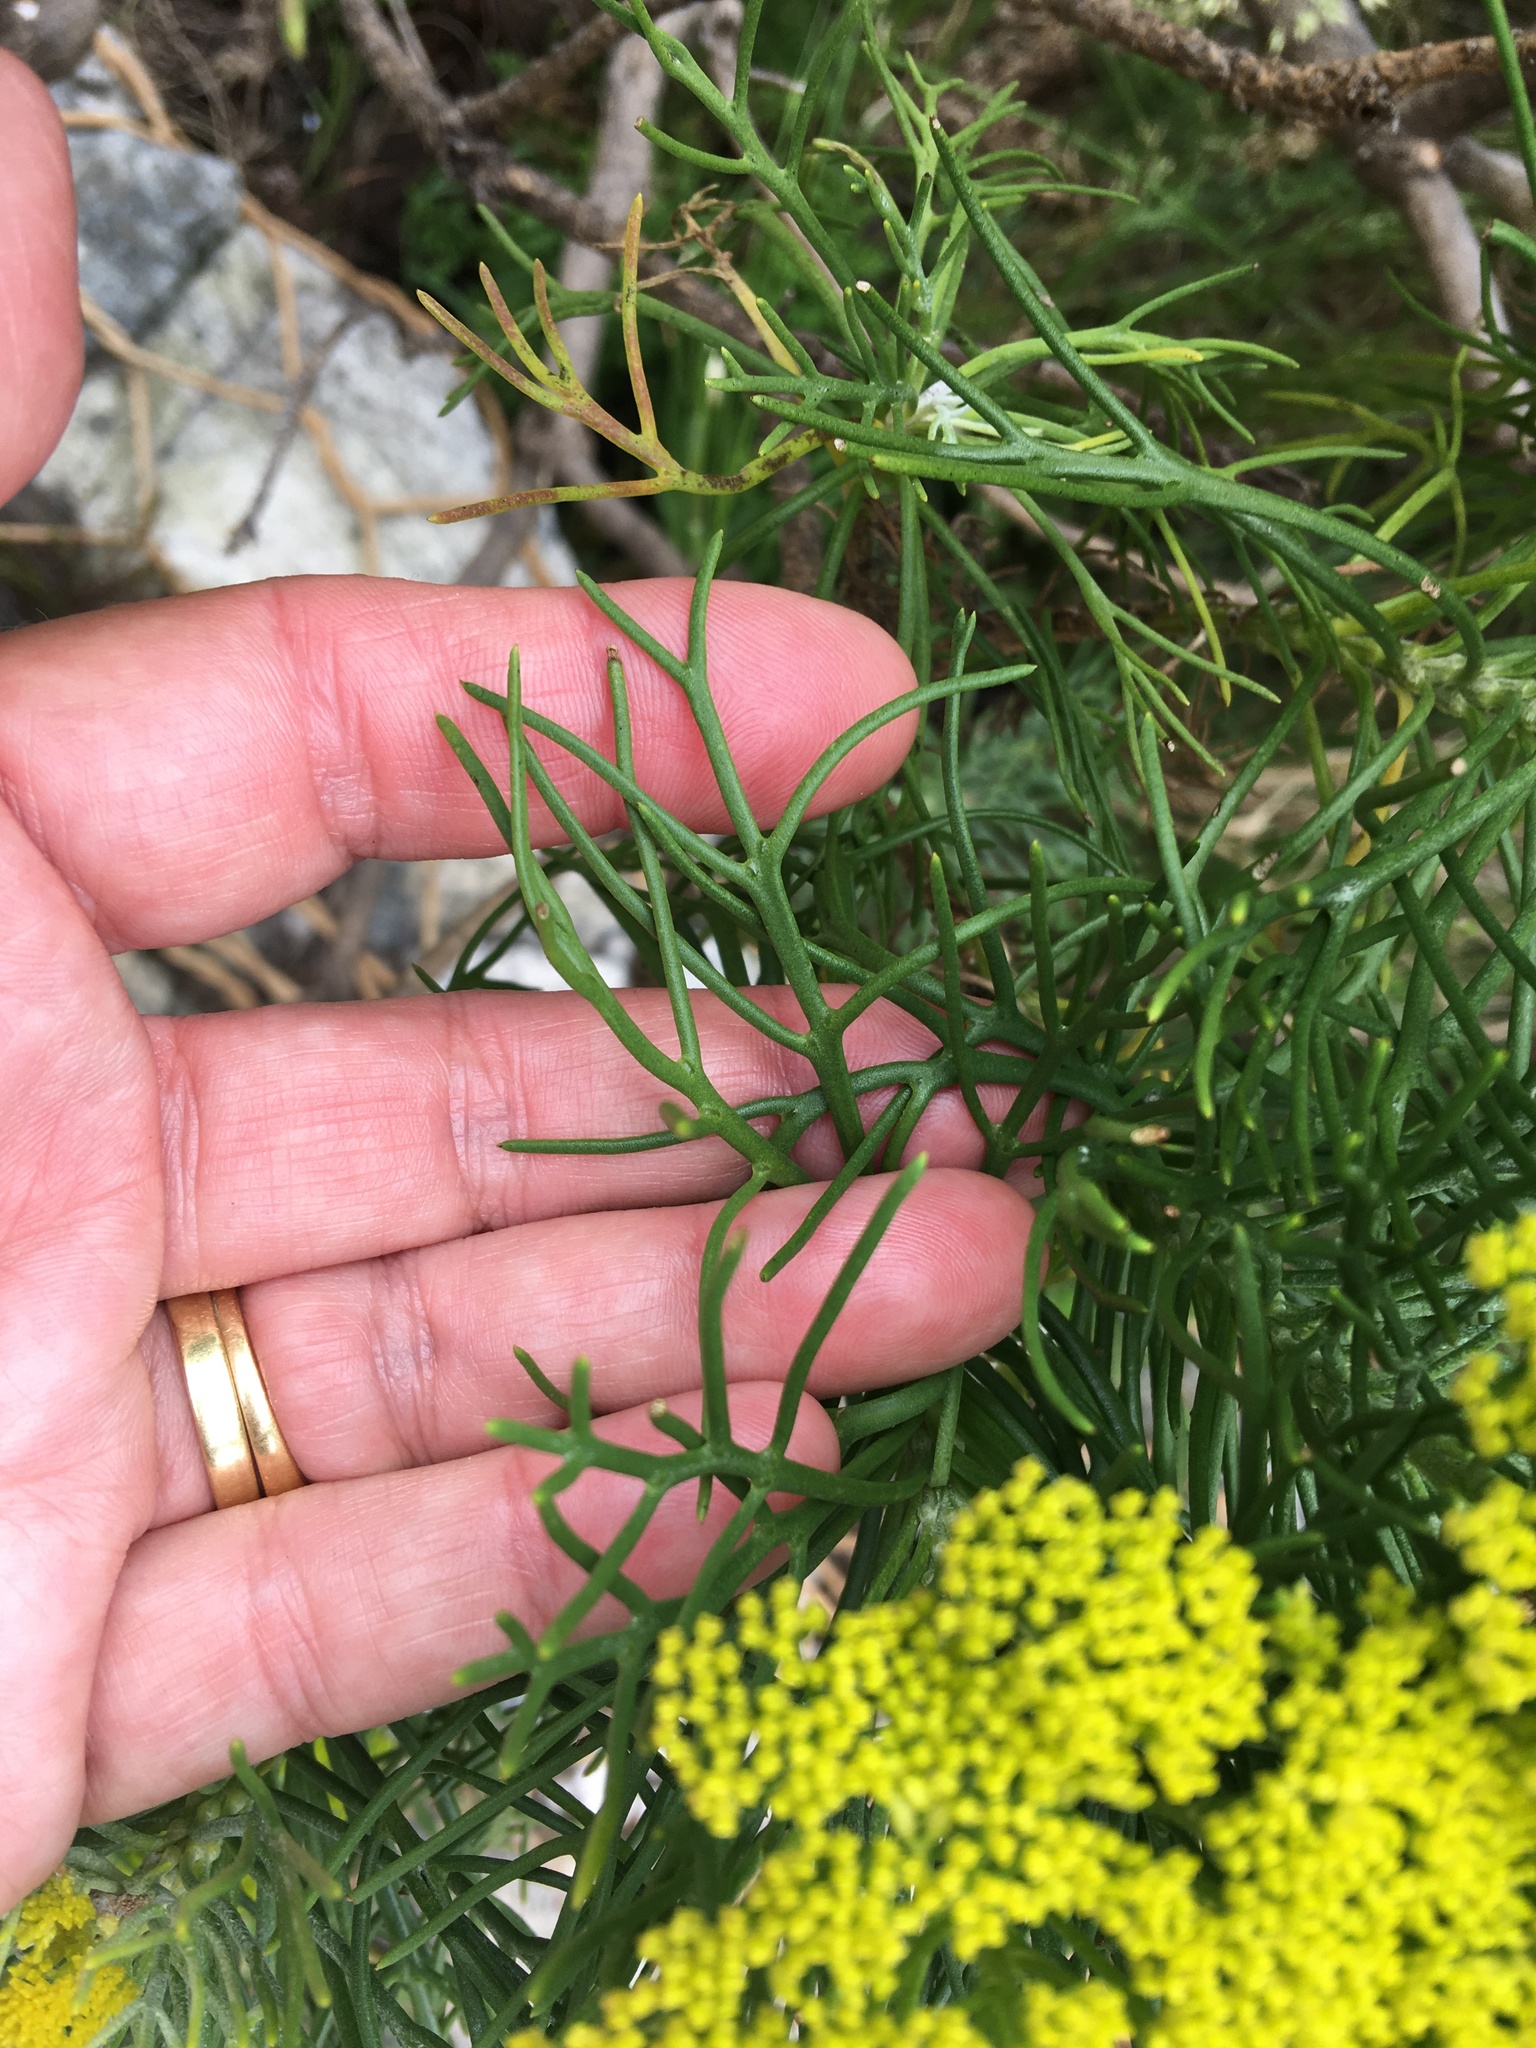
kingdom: Plantae
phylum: Tracheophyta
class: Magnoliopsida
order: Asterales
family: Asteraceae
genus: Hymenolepis
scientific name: Hymenolepis crithmifolia
